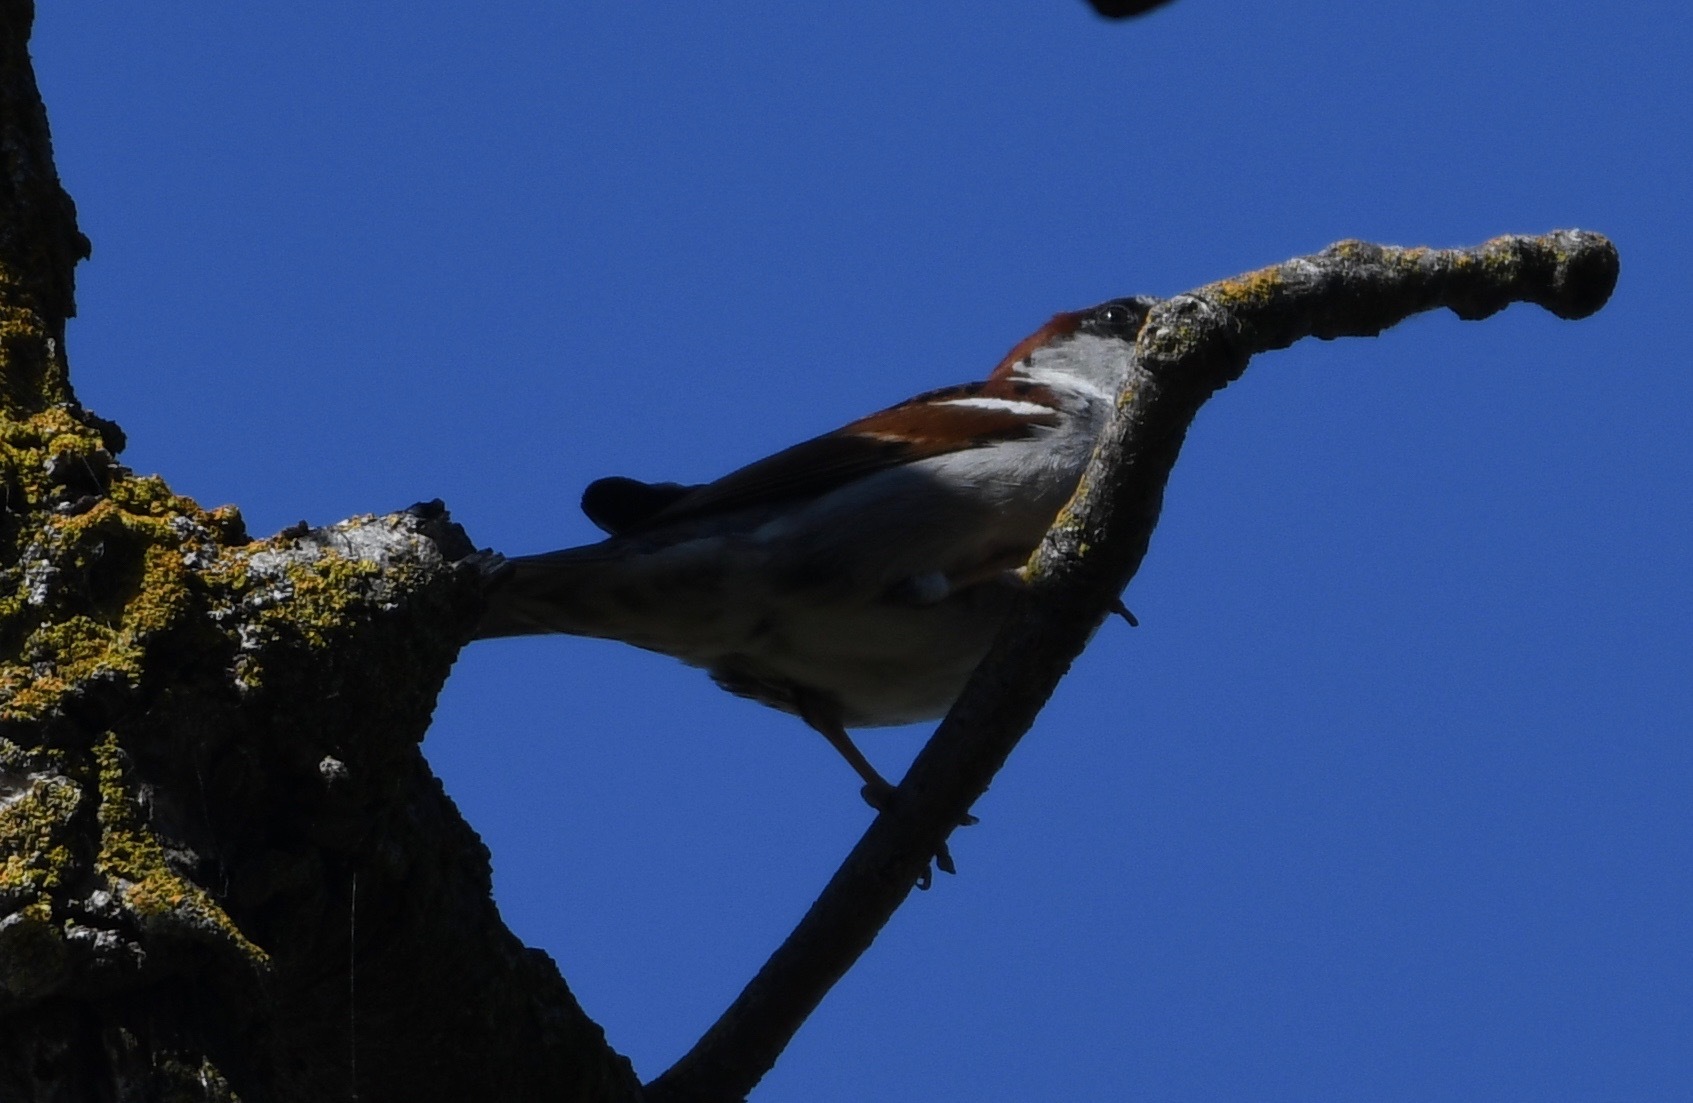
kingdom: Animalia
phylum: Chordata
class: Aves
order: Passeriformes
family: Passeridae
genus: Passer
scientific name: Passer domesticus
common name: House sparrow
